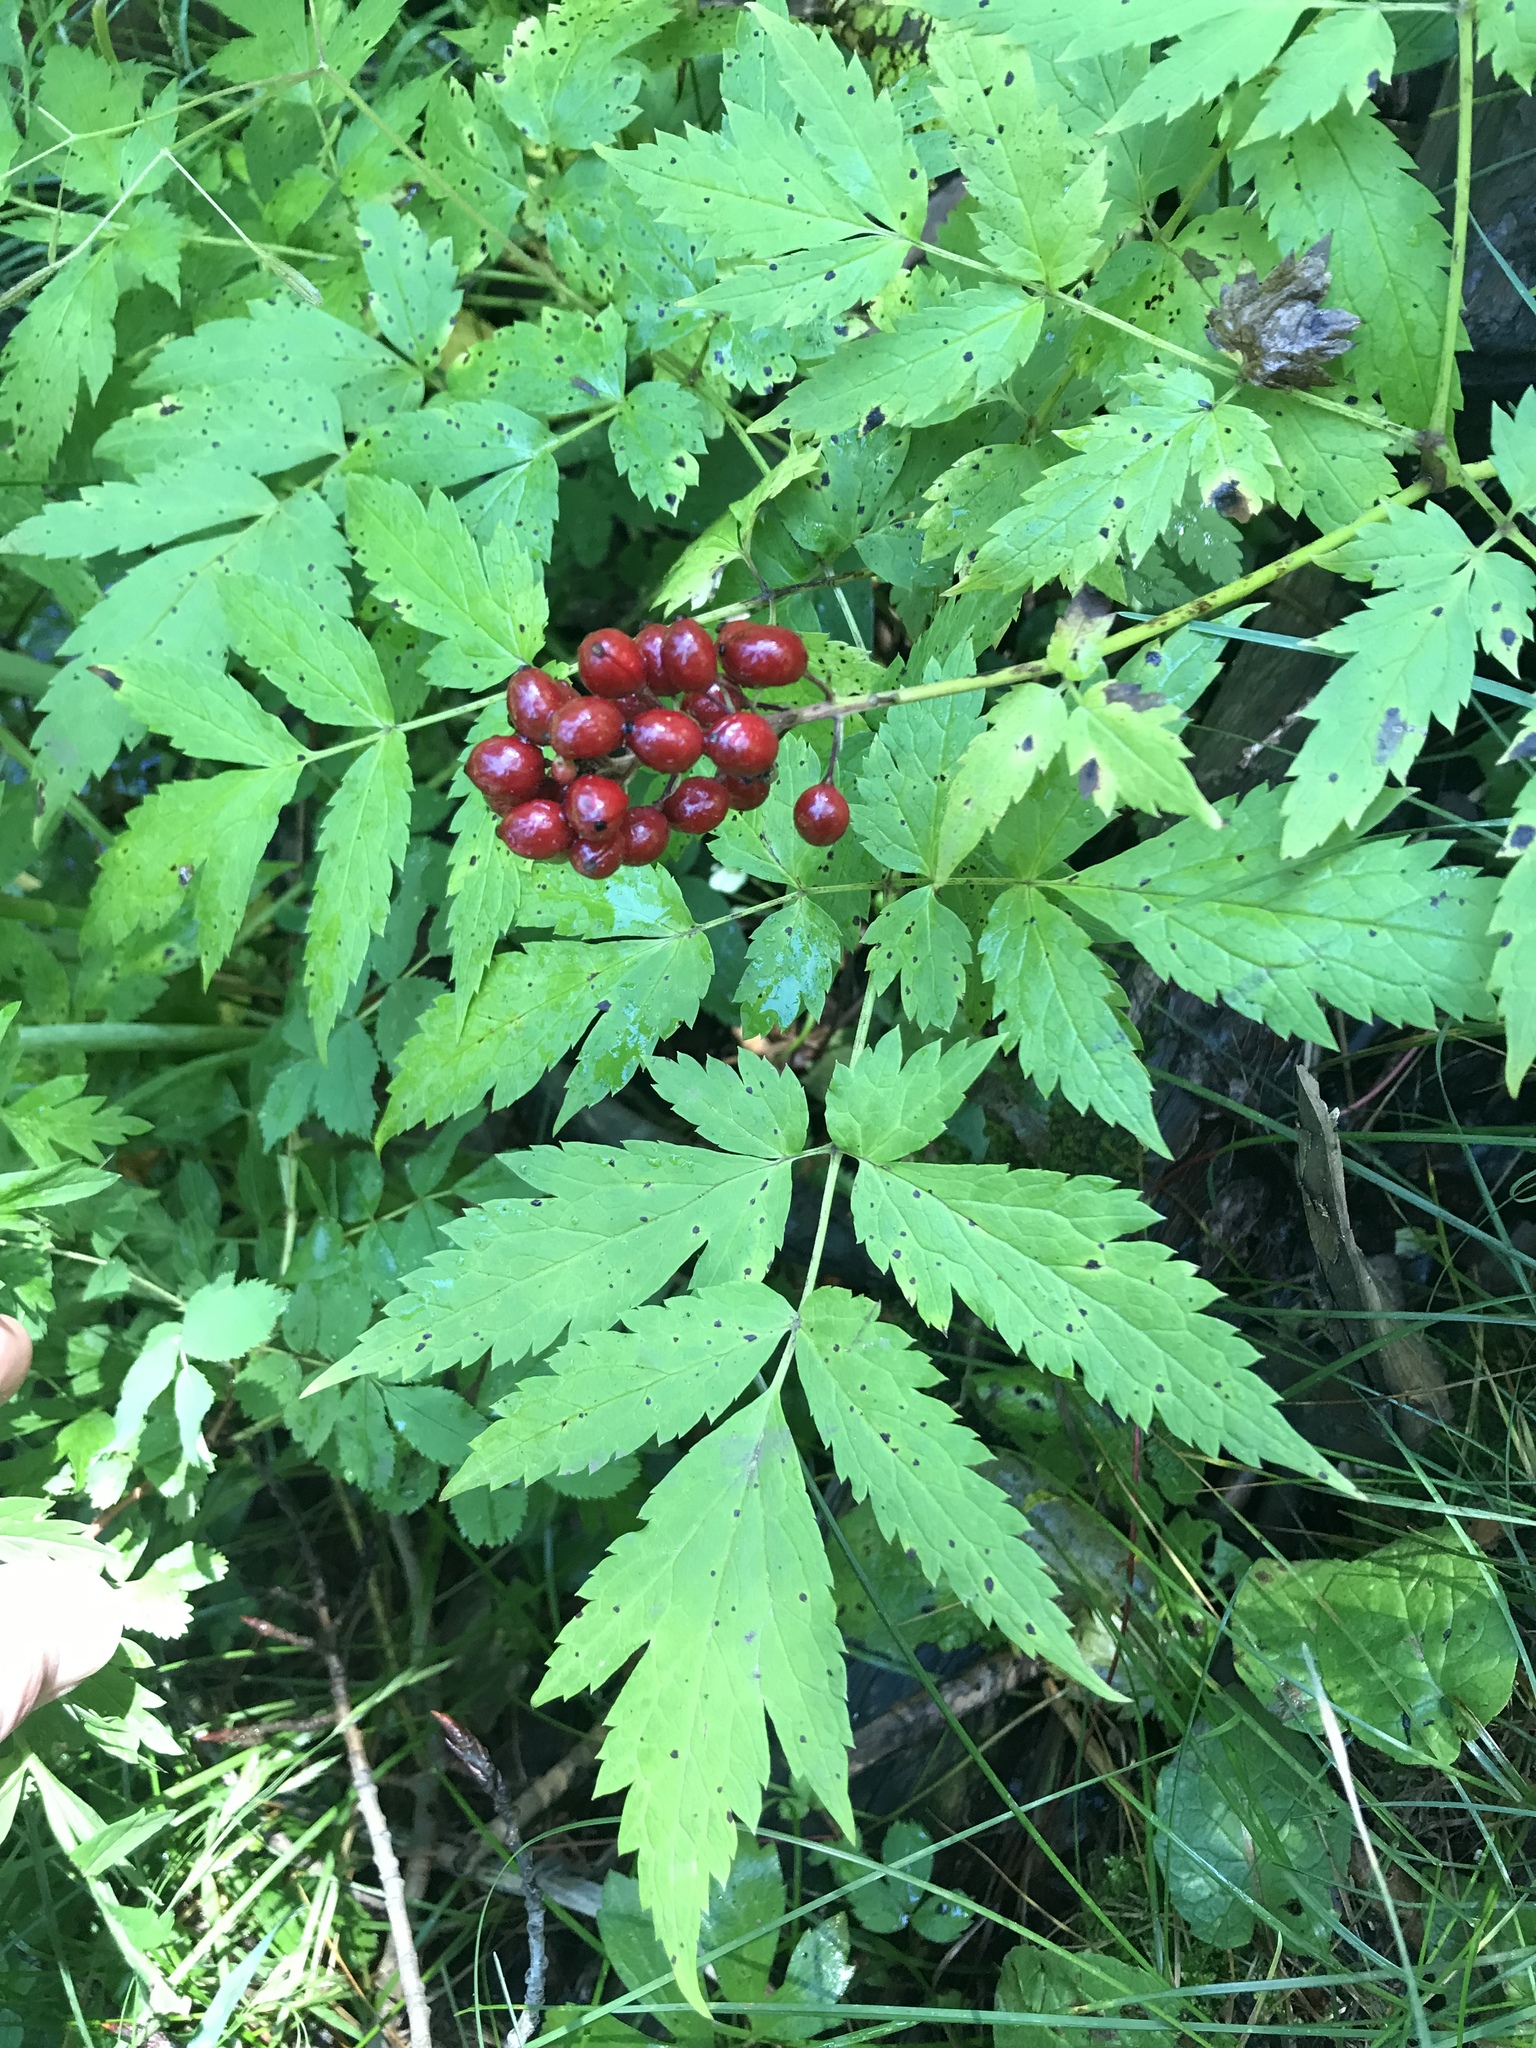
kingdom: Plantae
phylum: Tracheophyta
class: Magnoliopsida
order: Ranunculales
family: Ranunculaceae
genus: Actaea
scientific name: Actaea rubra
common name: Red baneberry
